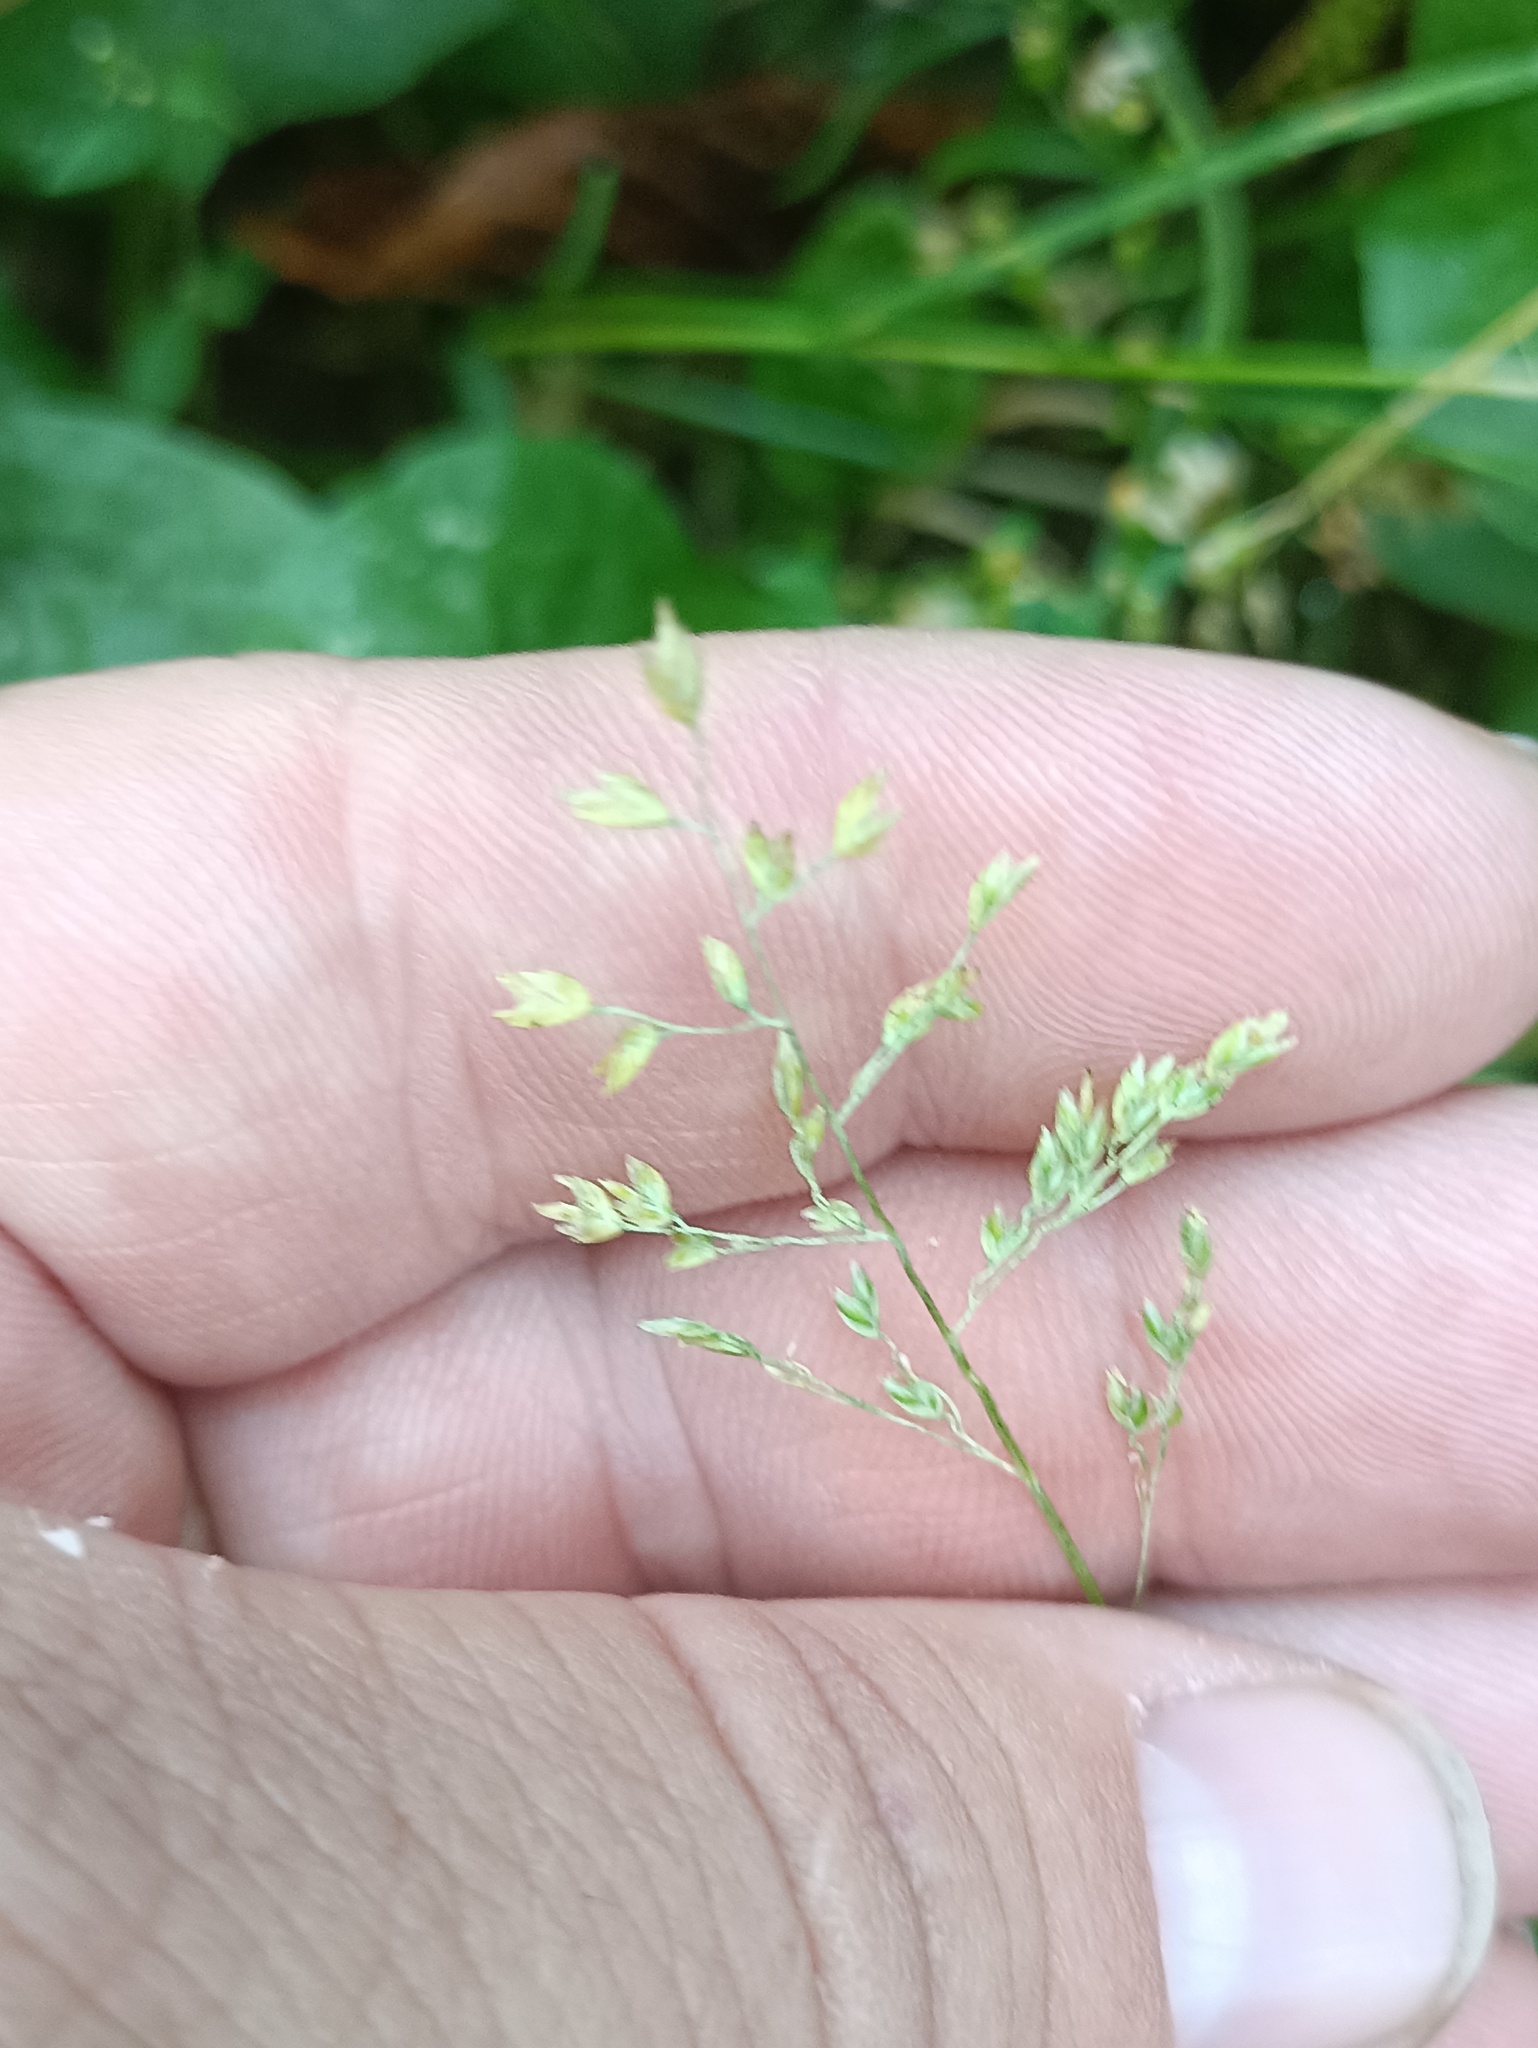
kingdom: Plantae
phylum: Tracheophyta
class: Liliopsida
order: Poales
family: Poaceae
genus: Poa
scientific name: Poa annua
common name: Annual bluegrass
